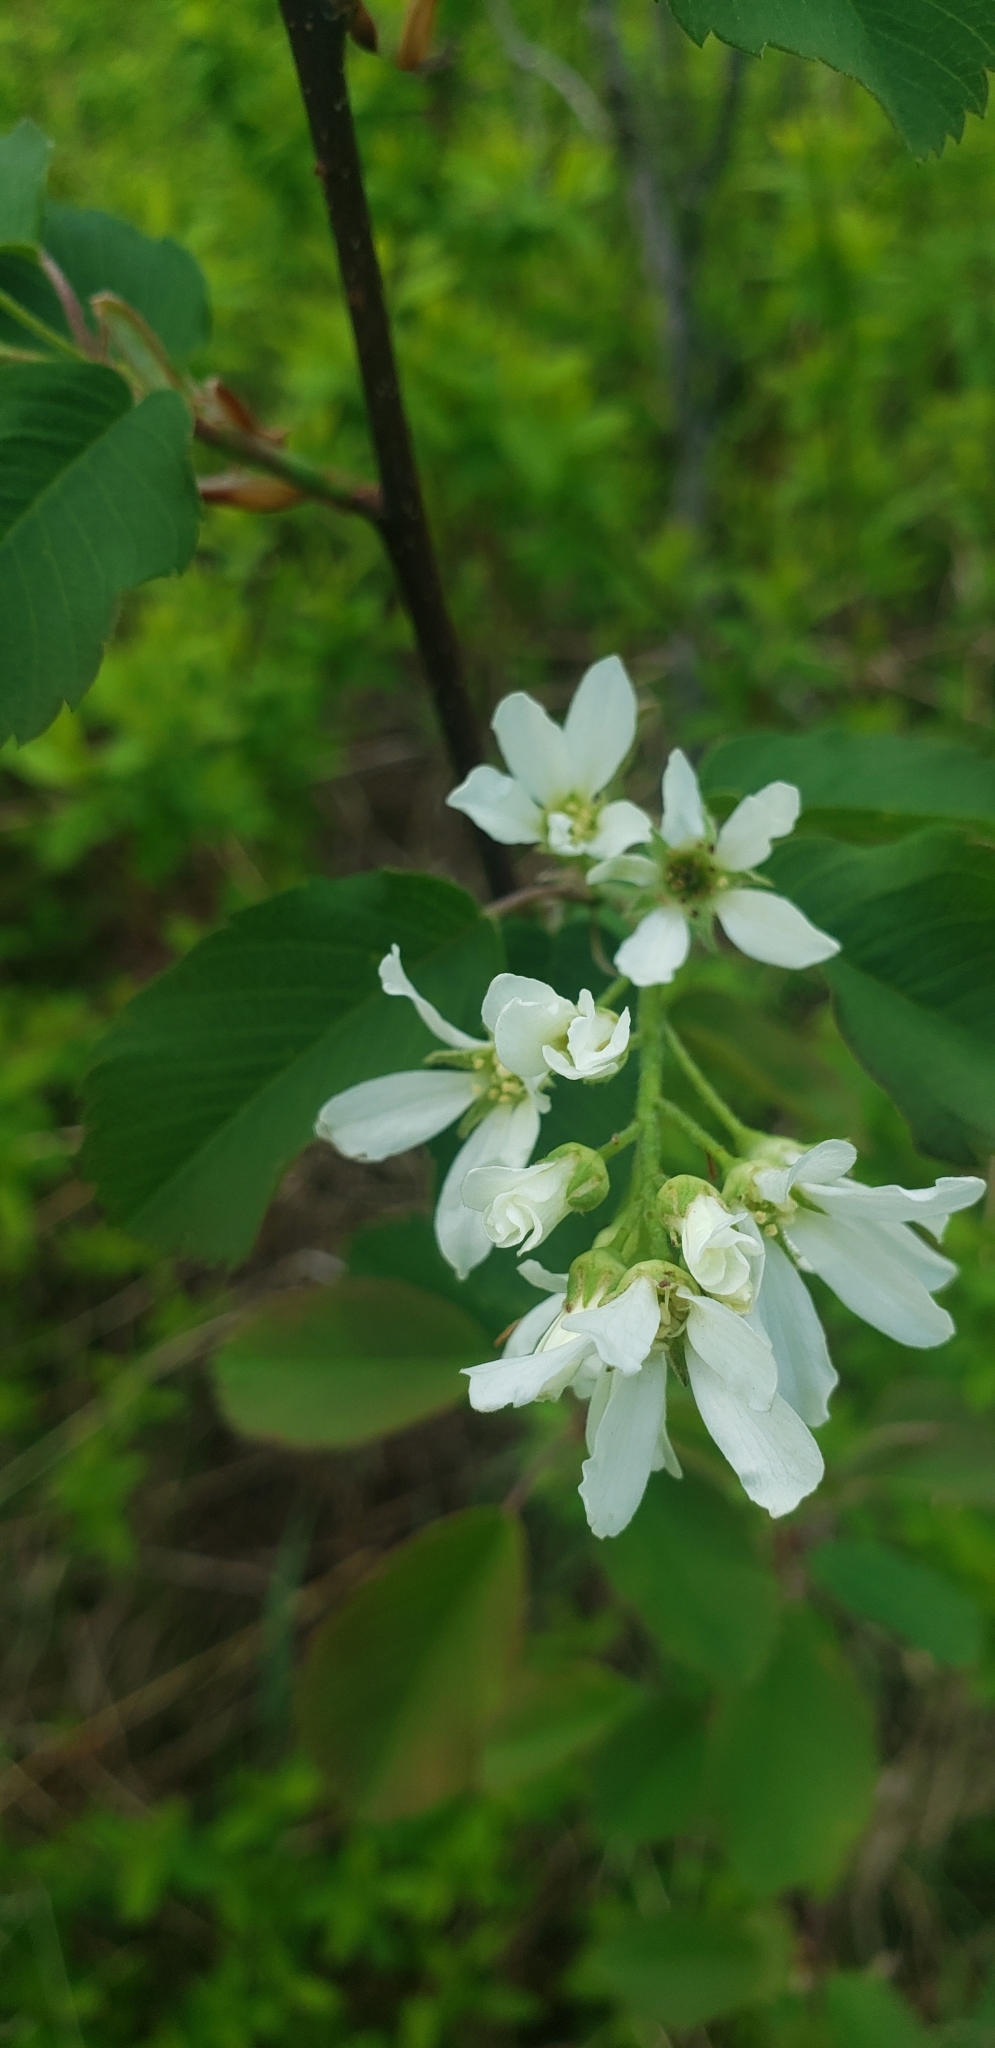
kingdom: Plantae
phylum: Tracheophyta
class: Magnoliopsida
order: Rosales
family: Rosaceae
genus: Amelanchier
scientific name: Amelanchier alnifolia
